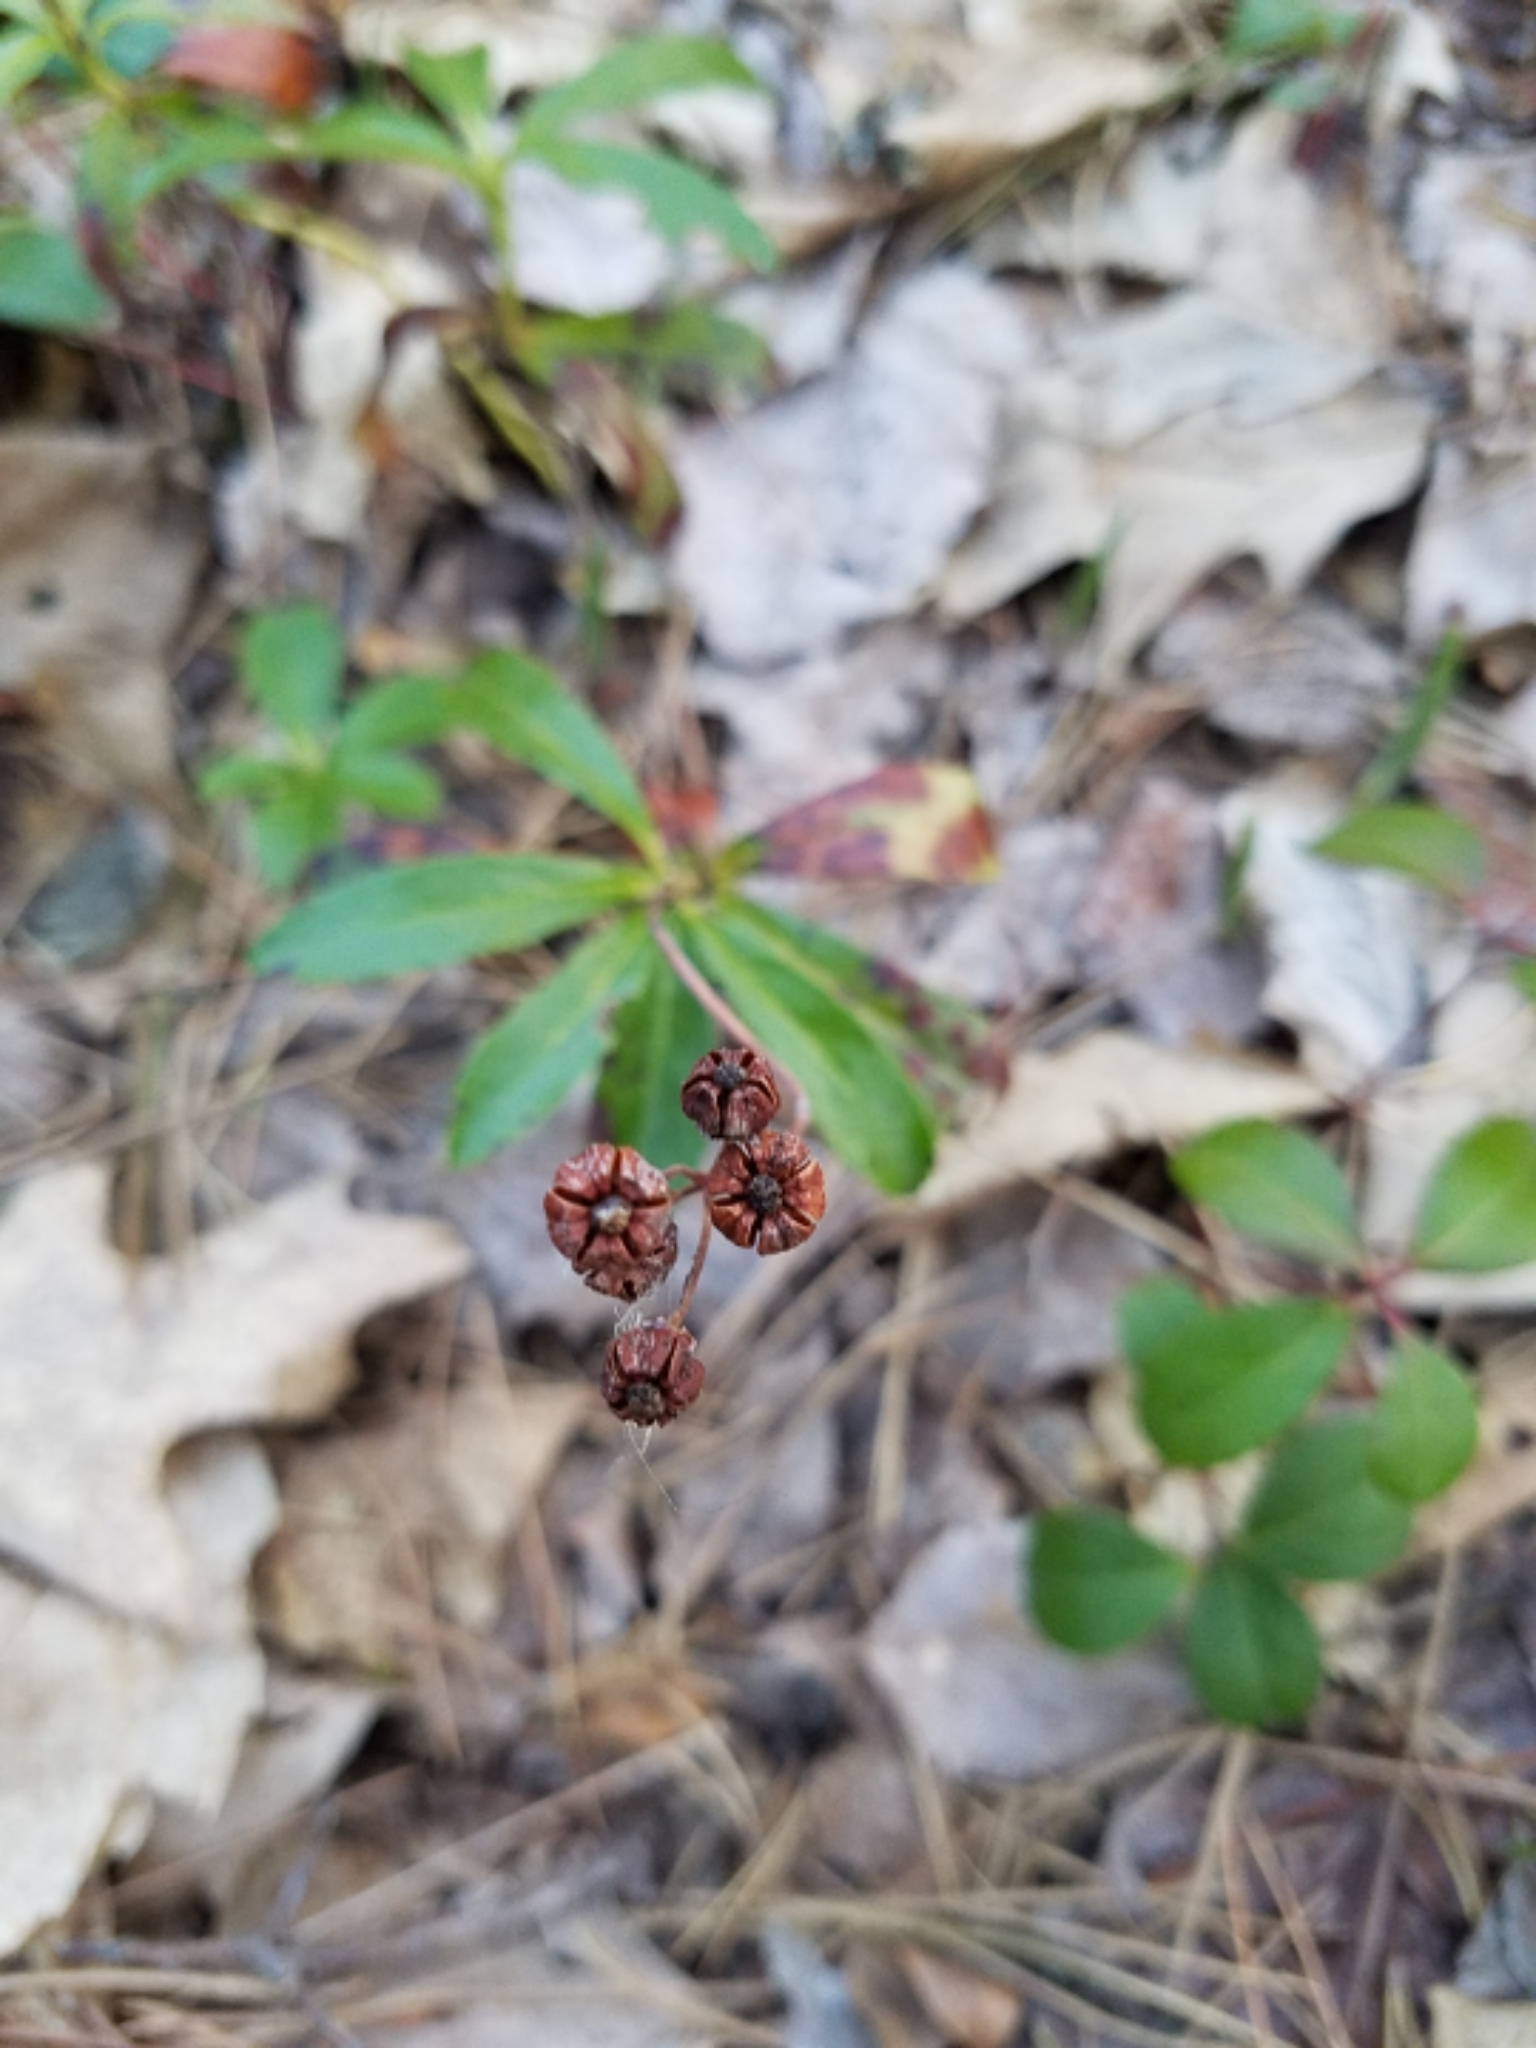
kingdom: Plantae
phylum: Tracheophyta
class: Magnoliopsida
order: Ericales
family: Ericaceae
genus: Chimaphila
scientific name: Chimaphila umbellata
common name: Pipsissewa
